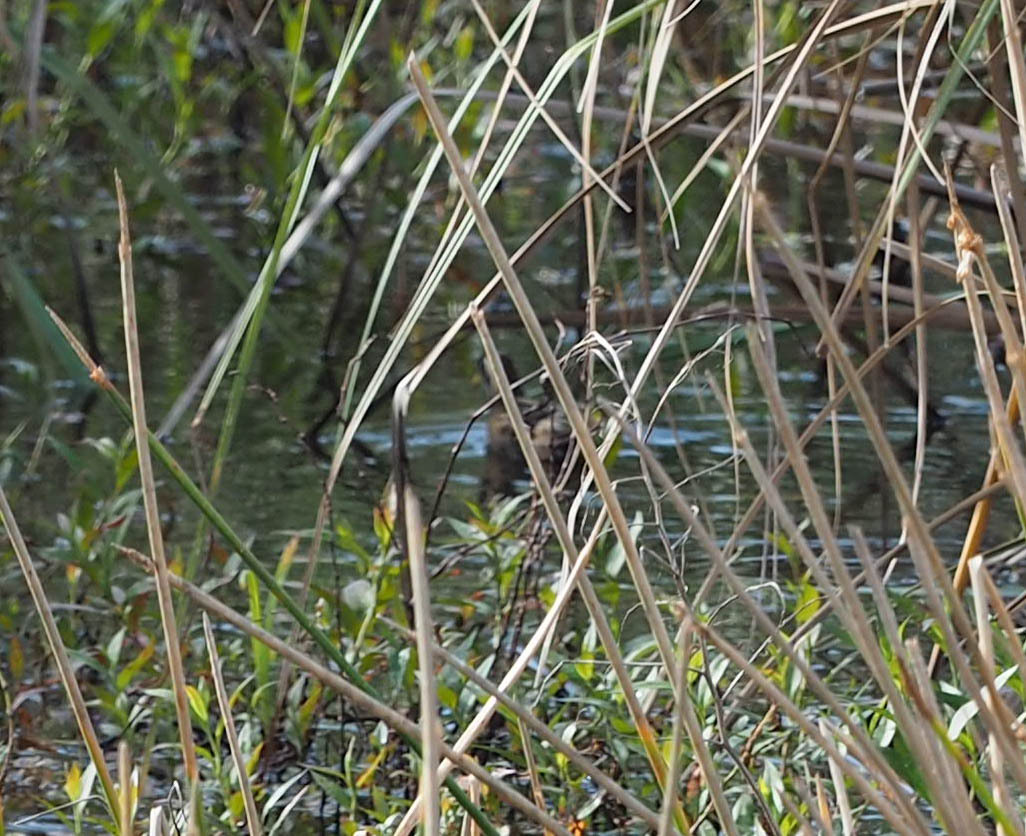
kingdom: Animalia
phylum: Chordata
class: Aves
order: Gruiformes
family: Rallidae
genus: Porzana
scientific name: Porzana carolina
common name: Sora
